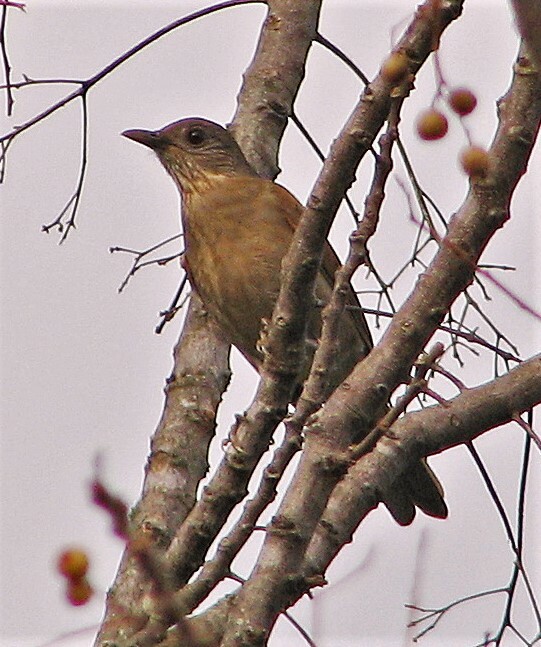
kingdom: Animalia
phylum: Chordata
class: Aves
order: Passeriformes
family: Turdidae
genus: Turdus
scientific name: Turdus leucomelas
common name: Pale-breasted thrush
